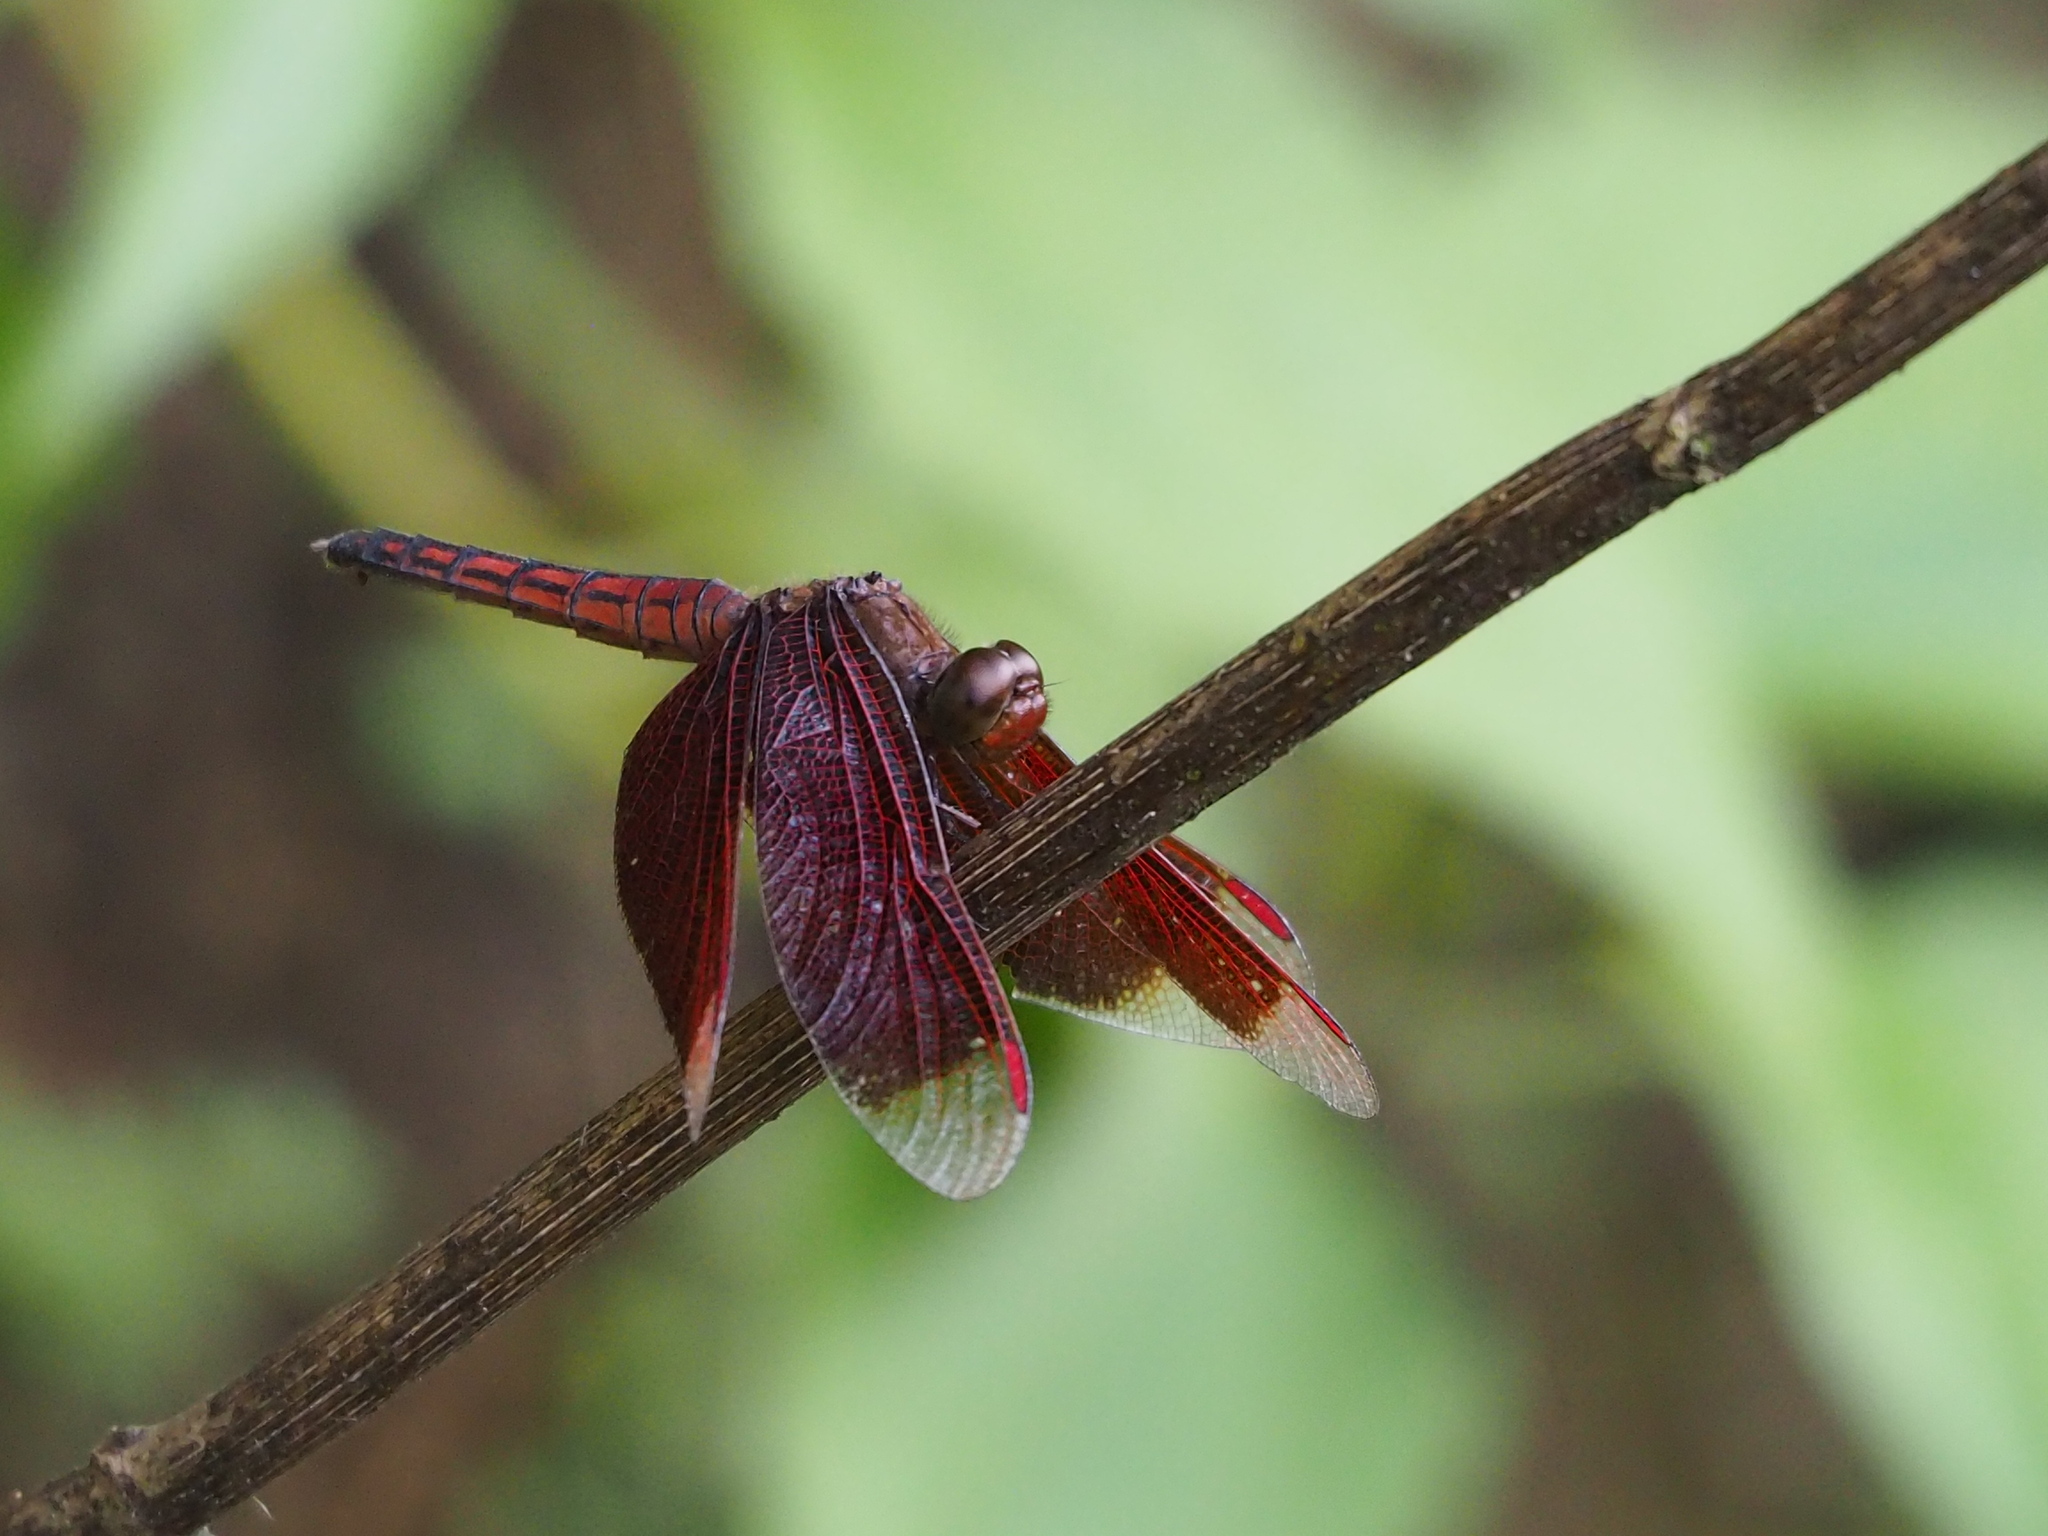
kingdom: Animalia
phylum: Arthropoda
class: Insecta
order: Odonata
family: Libellulidae
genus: Neurothemis
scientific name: Neurothemis taiwanensis
